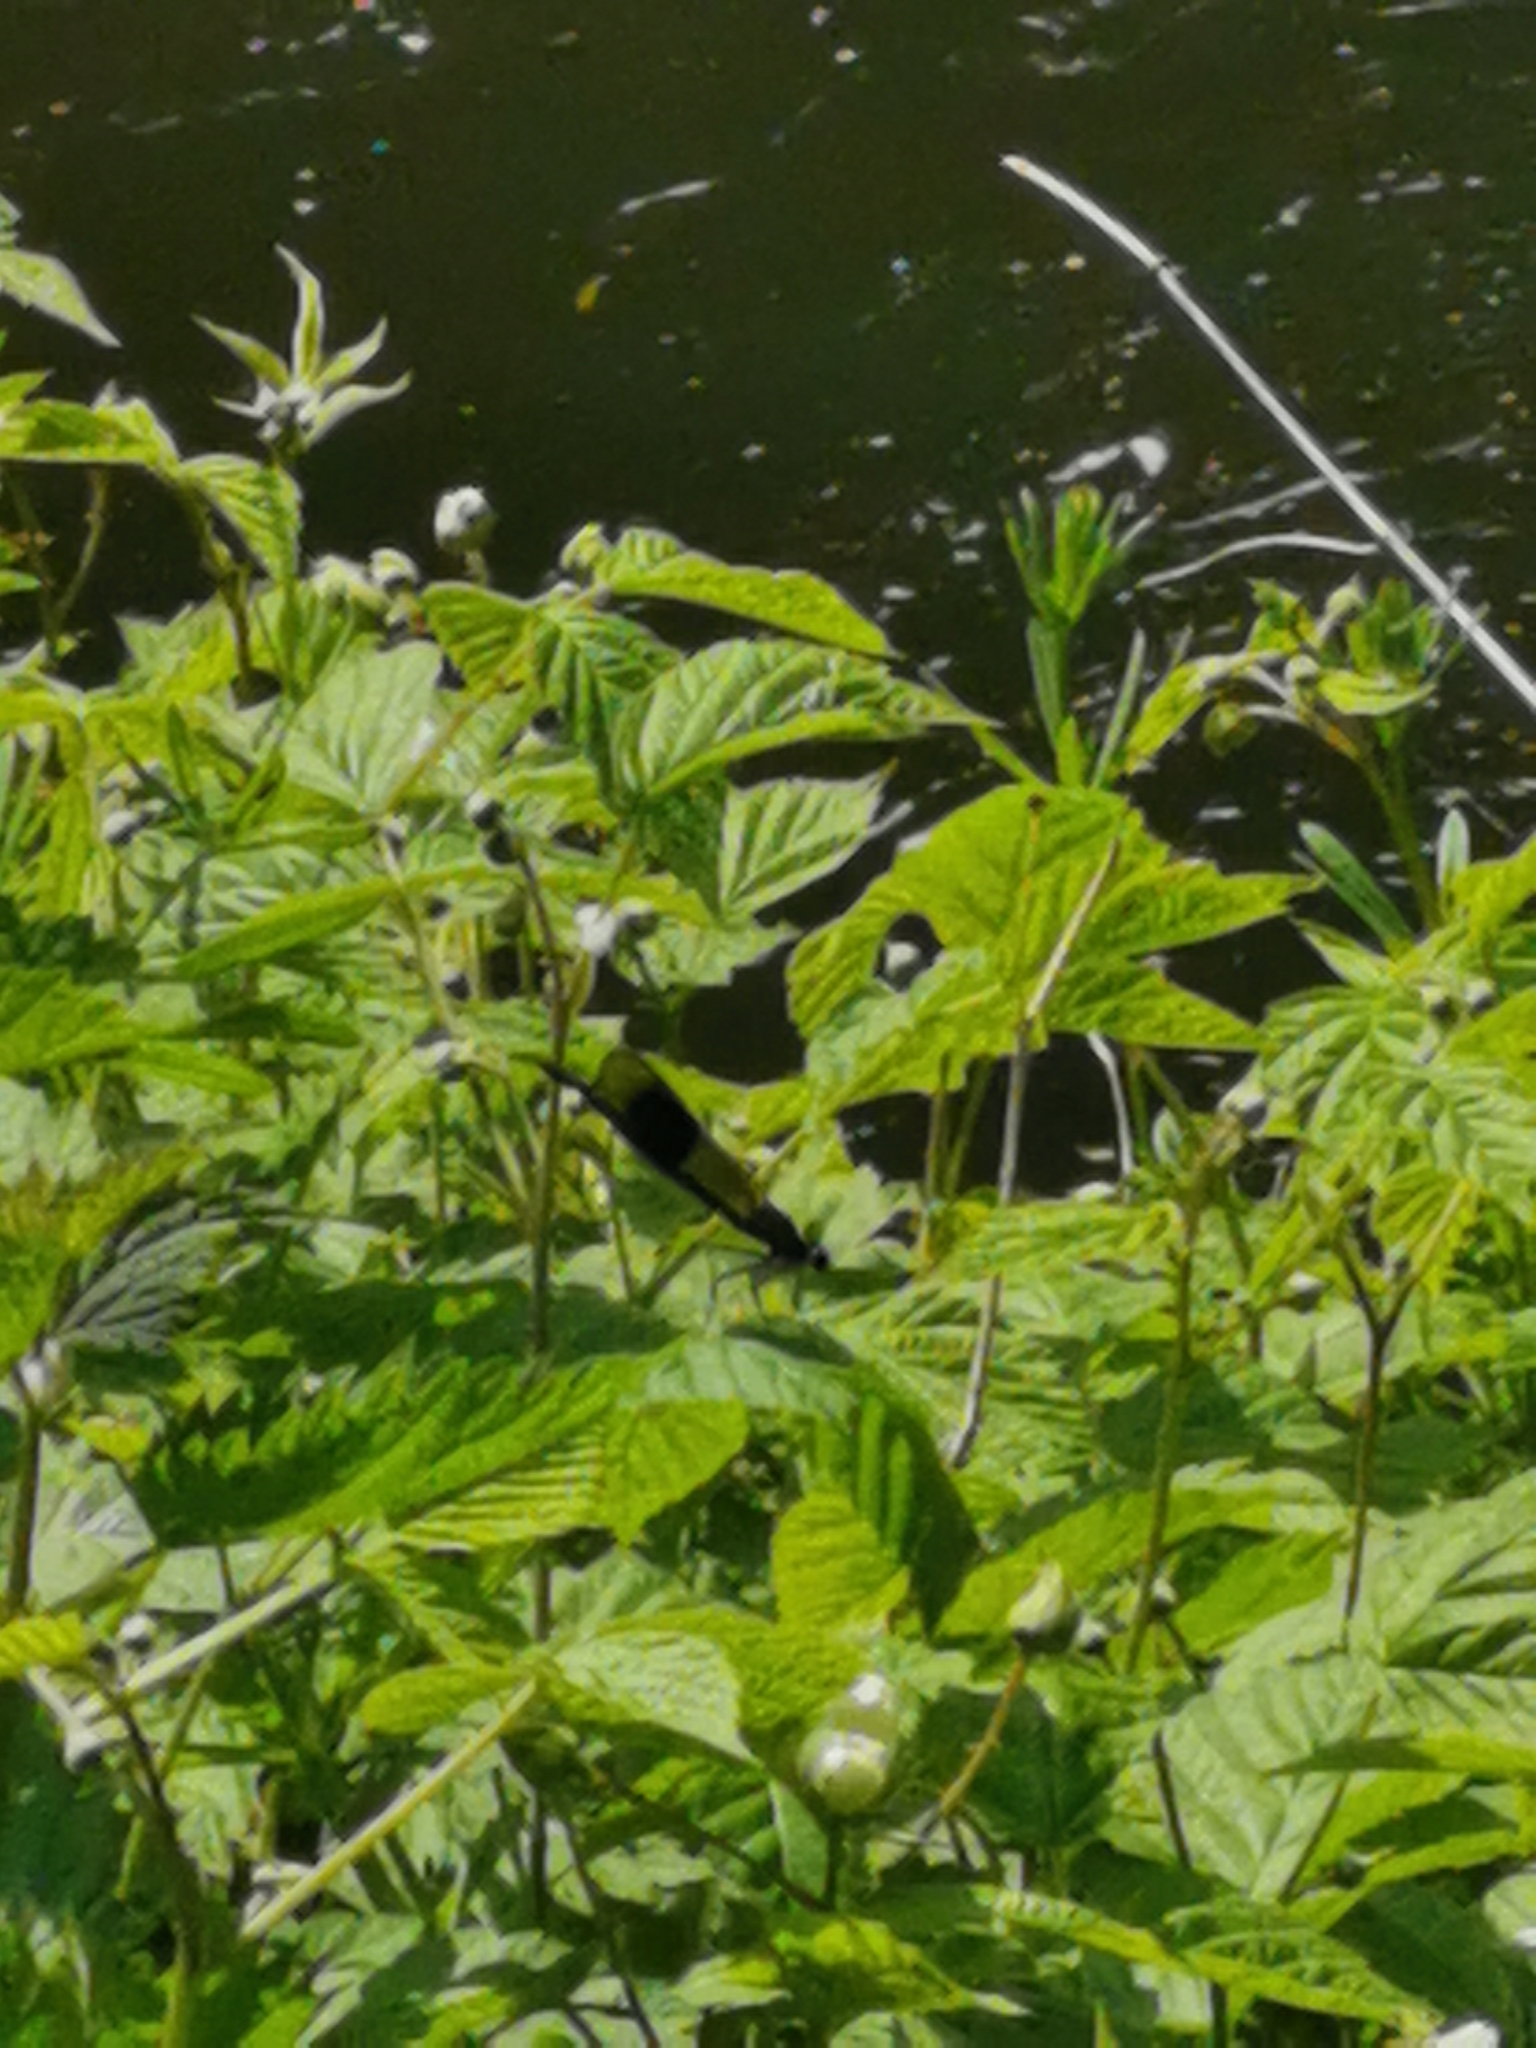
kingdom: Animalia
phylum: Arthropoda
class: Insecta
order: Odonata
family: Calopterygidae
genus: Calopteryx
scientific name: Calopteryx splendens
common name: Banded demoiselle
